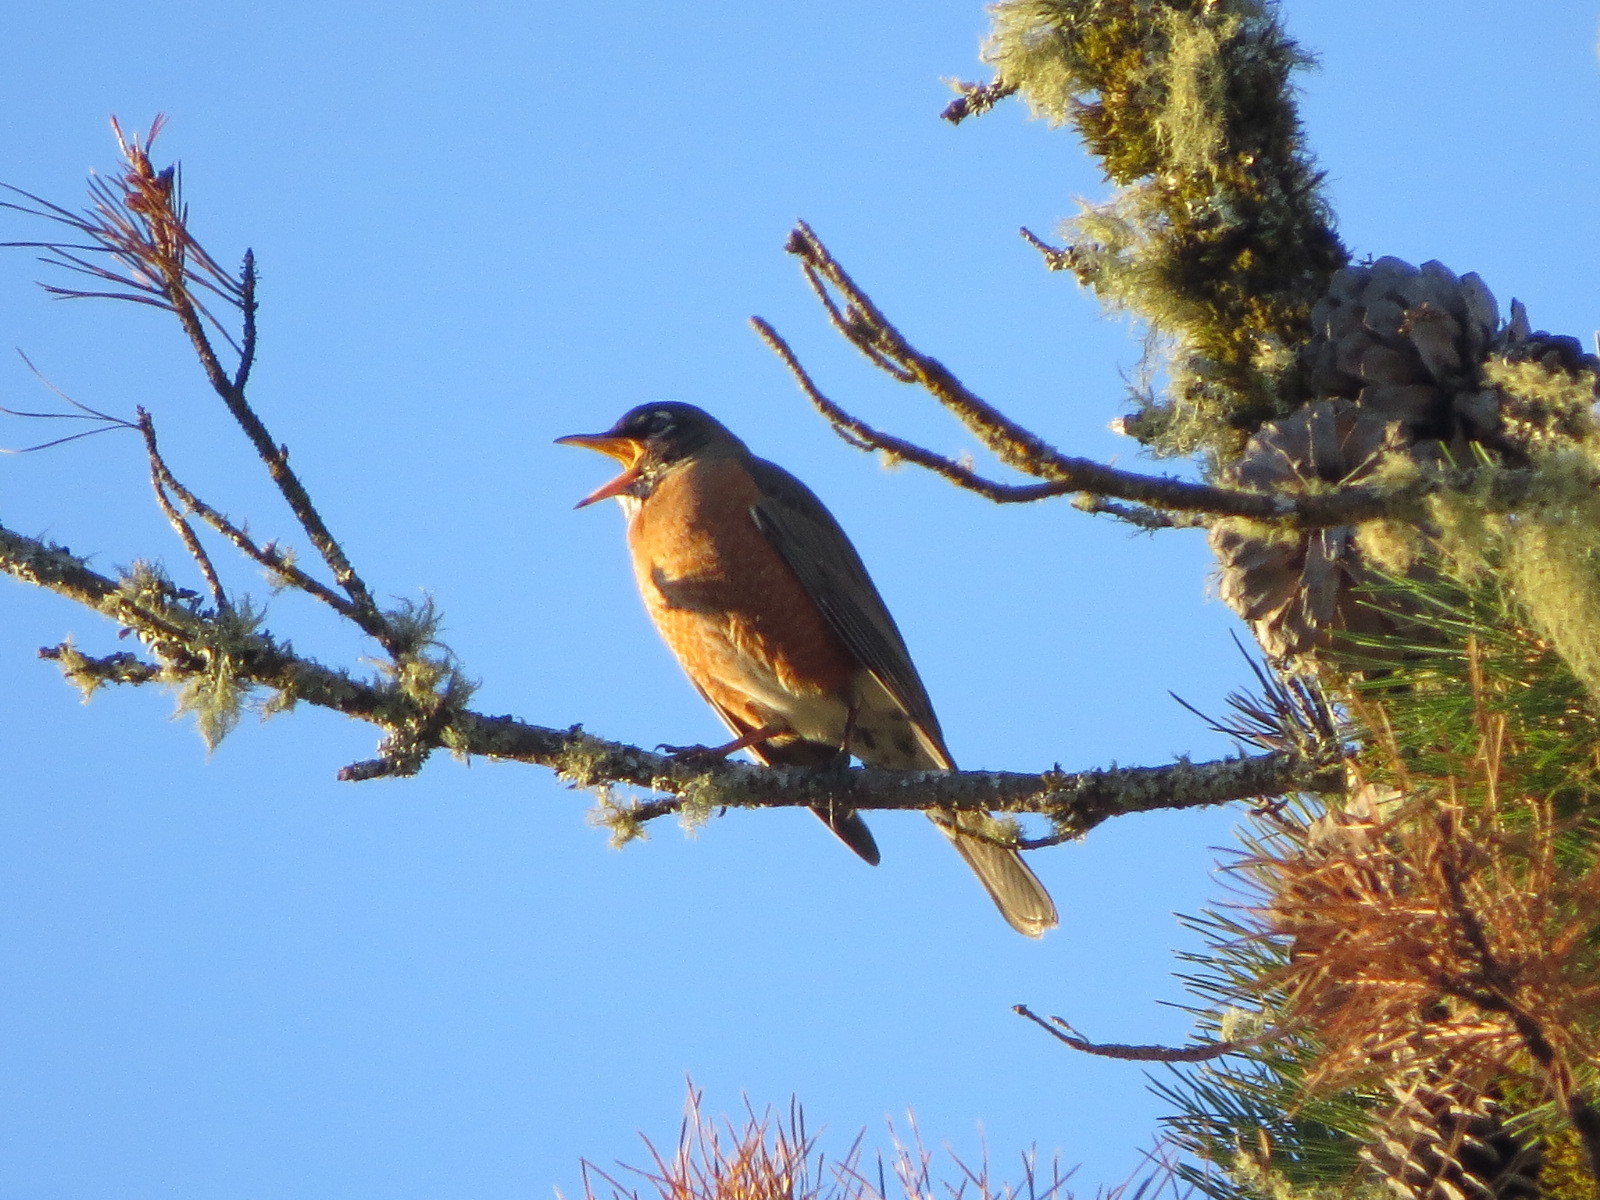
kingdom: Animalia
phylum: Chordata
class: Aves
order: Passeriformes
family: Turdidae
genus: Turdus
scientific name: Turdus migratorius
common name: American robin
